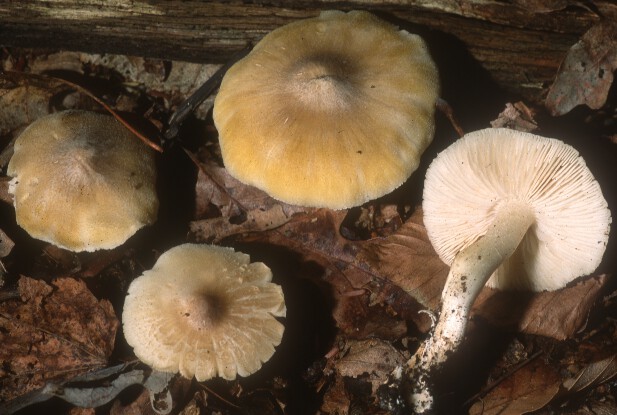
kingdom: Fungi
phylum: Basidiomycota
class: Agaricomycetes
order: Agaricales
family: Tricholomataceae
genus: Melanoleuca
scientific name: Melanoleuca davisiae
